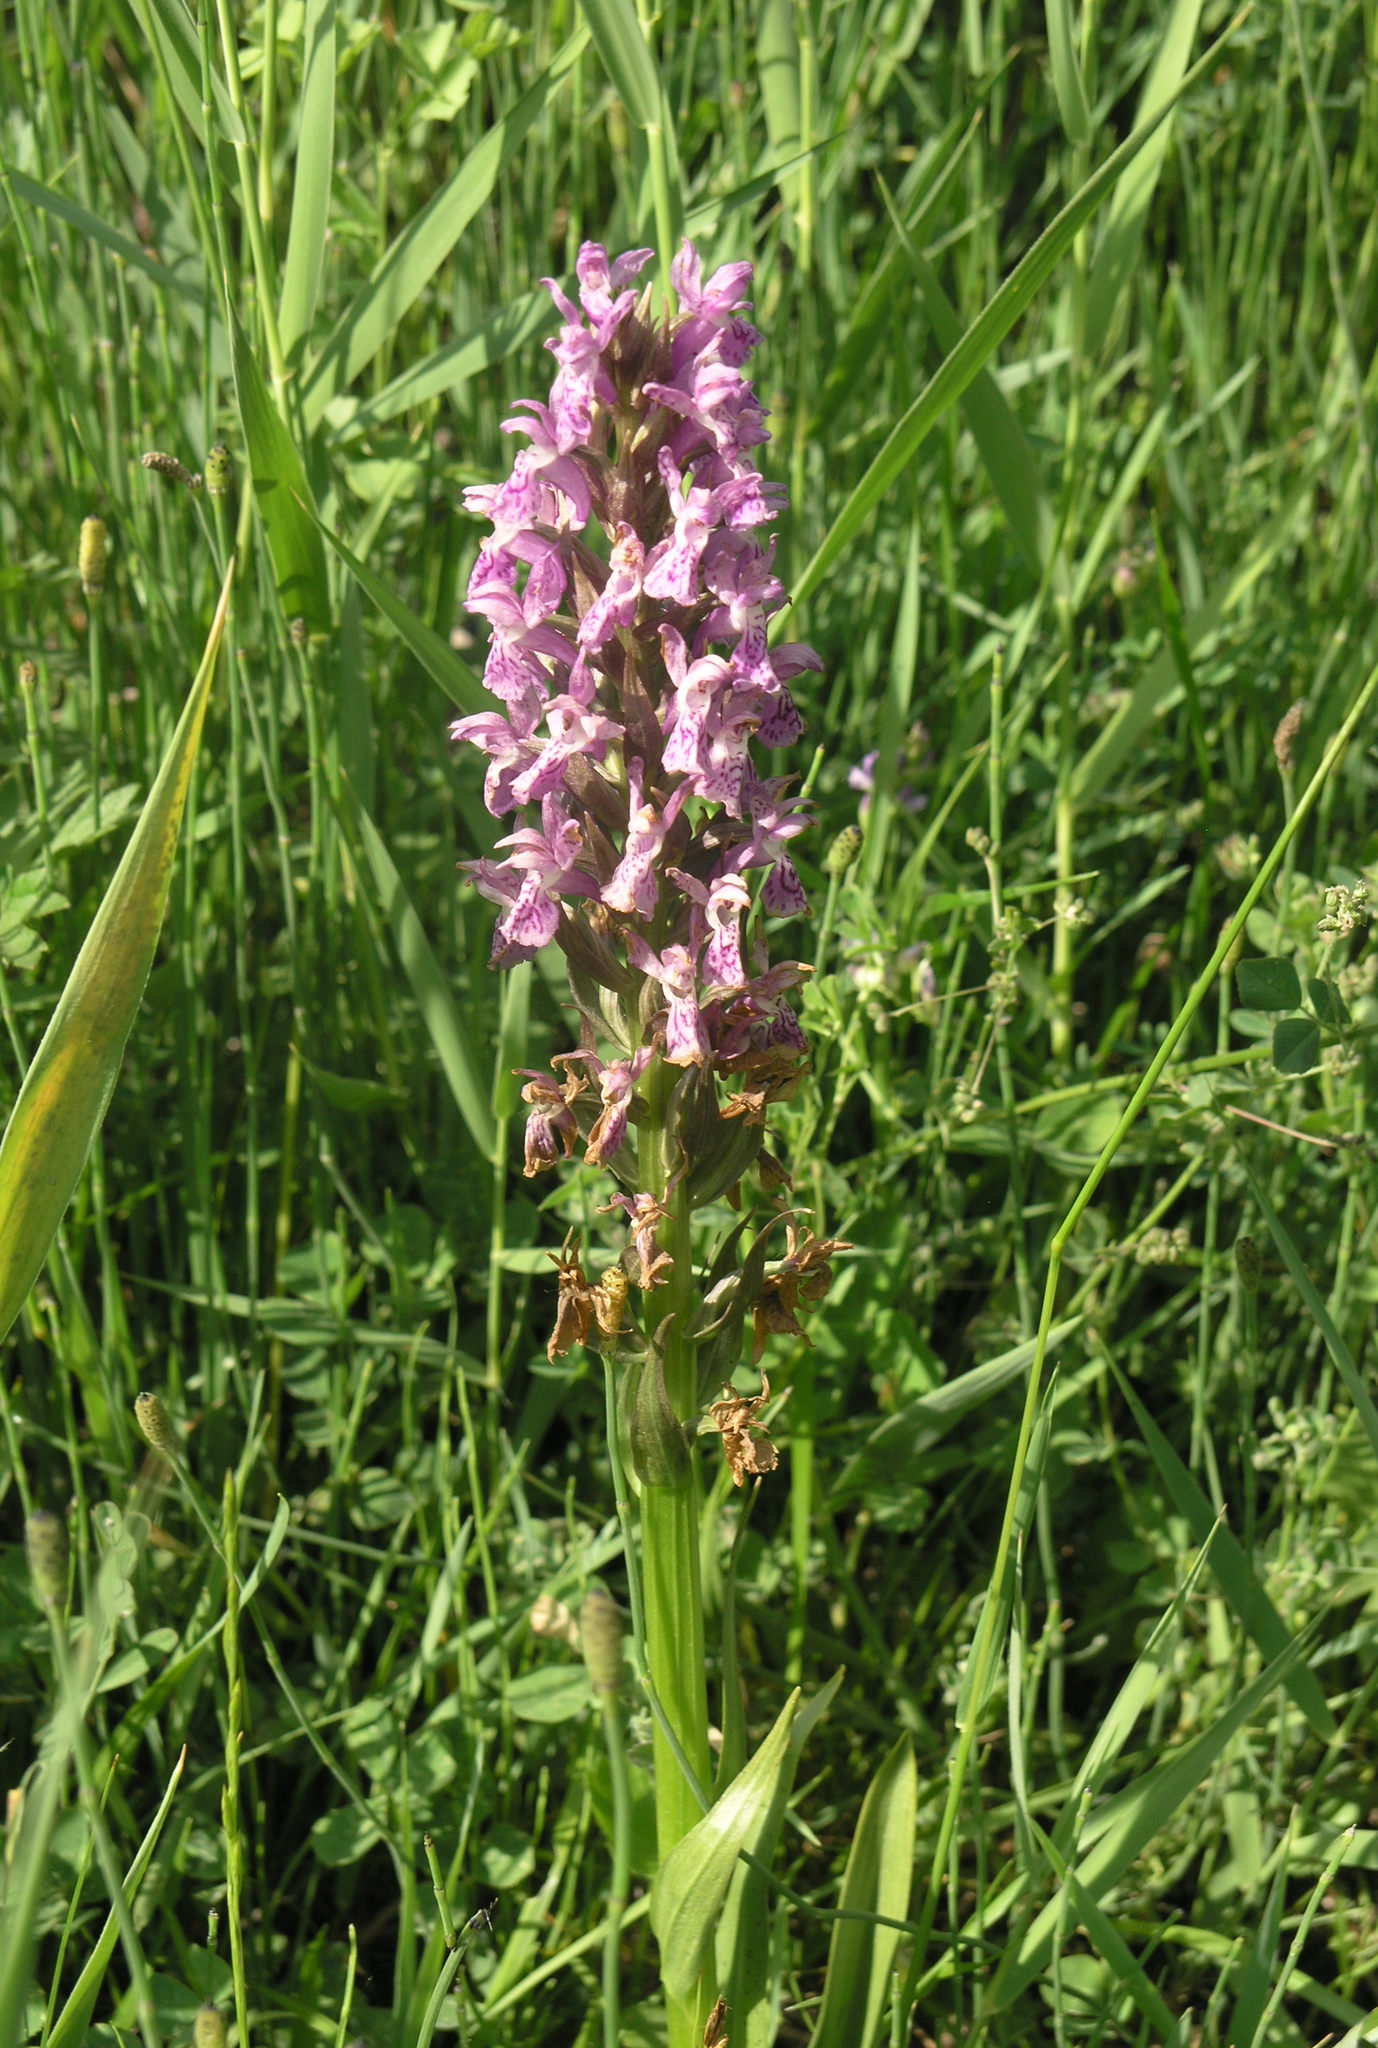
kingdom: Plantae
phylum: Tracheophyta
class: Liliopsida
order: Asparagales
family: Orchidaceae
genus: Dactylorhiza
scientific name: Dactylorhiza incarnata
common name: Early marsh-orchid
